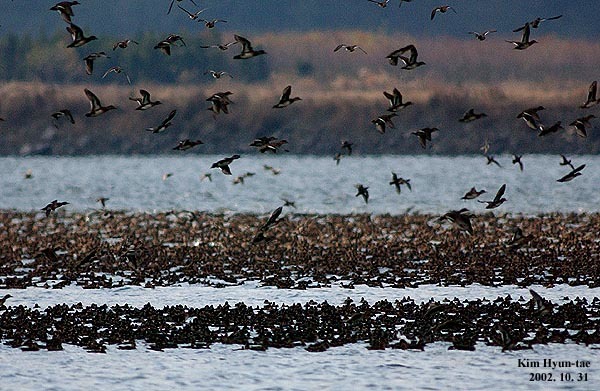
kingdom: Animalia
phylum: Chordata
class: Aves
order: Anseriformes
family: Anatidae
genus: Sibirionetta
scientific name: Sibirionetta formosa
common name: Baikal teal
